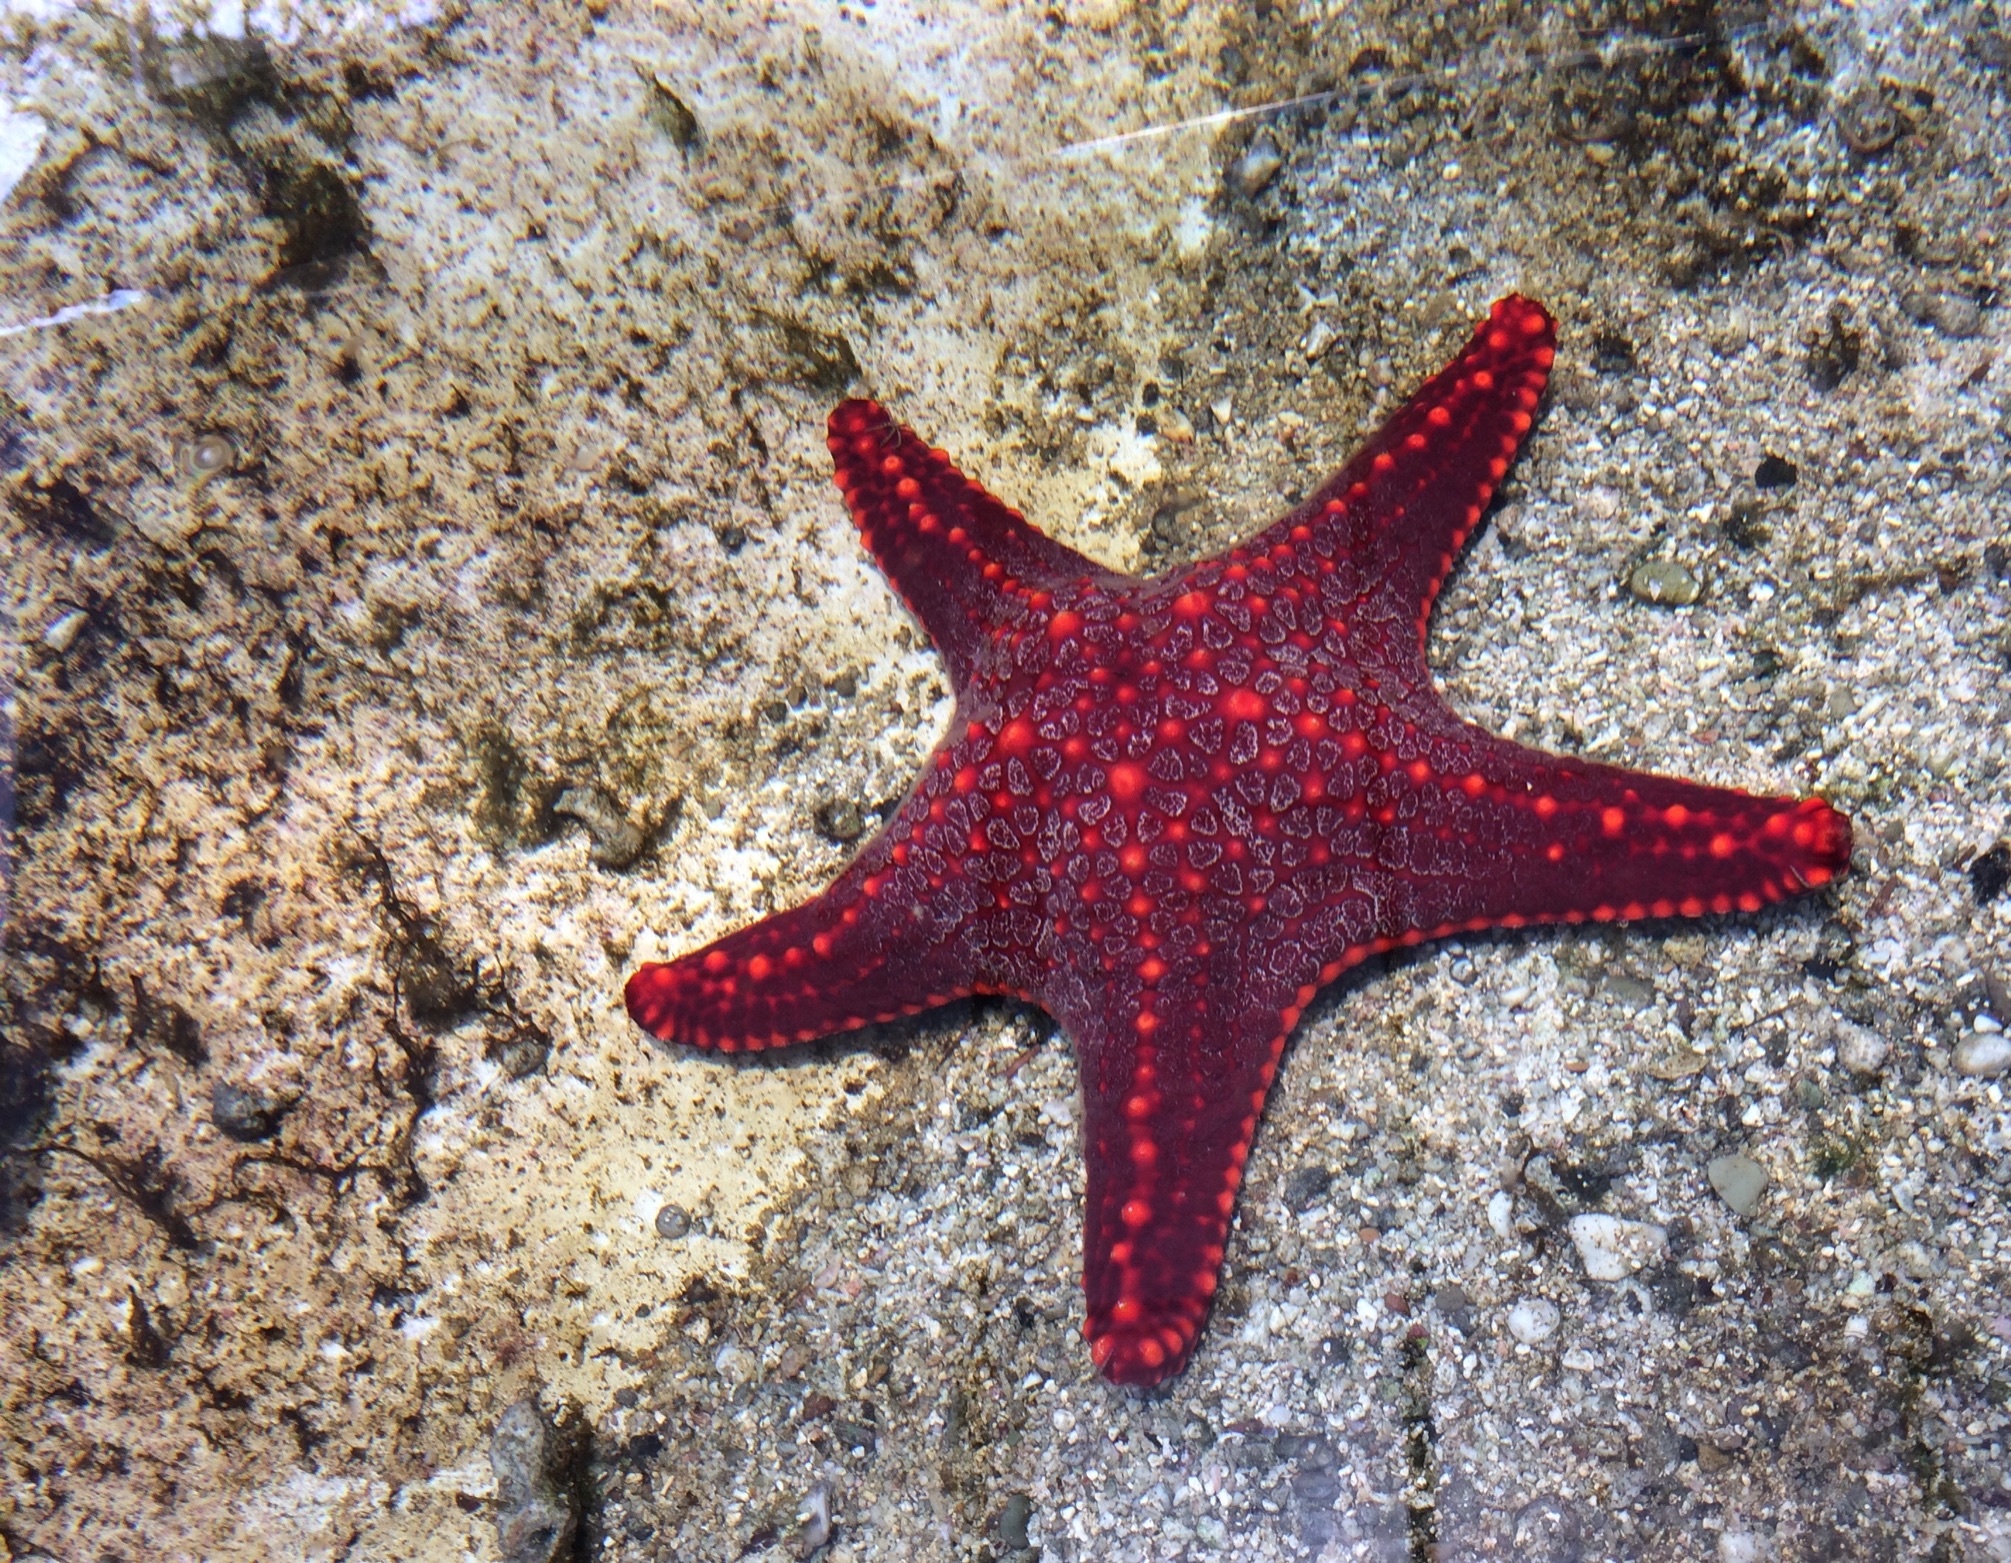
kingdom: Animalia
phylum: Echinodermata
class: Asteroidea
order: Valvatida
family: Oreasteridae
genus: Pentaceraster
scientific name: Pentaceraster cumingi
